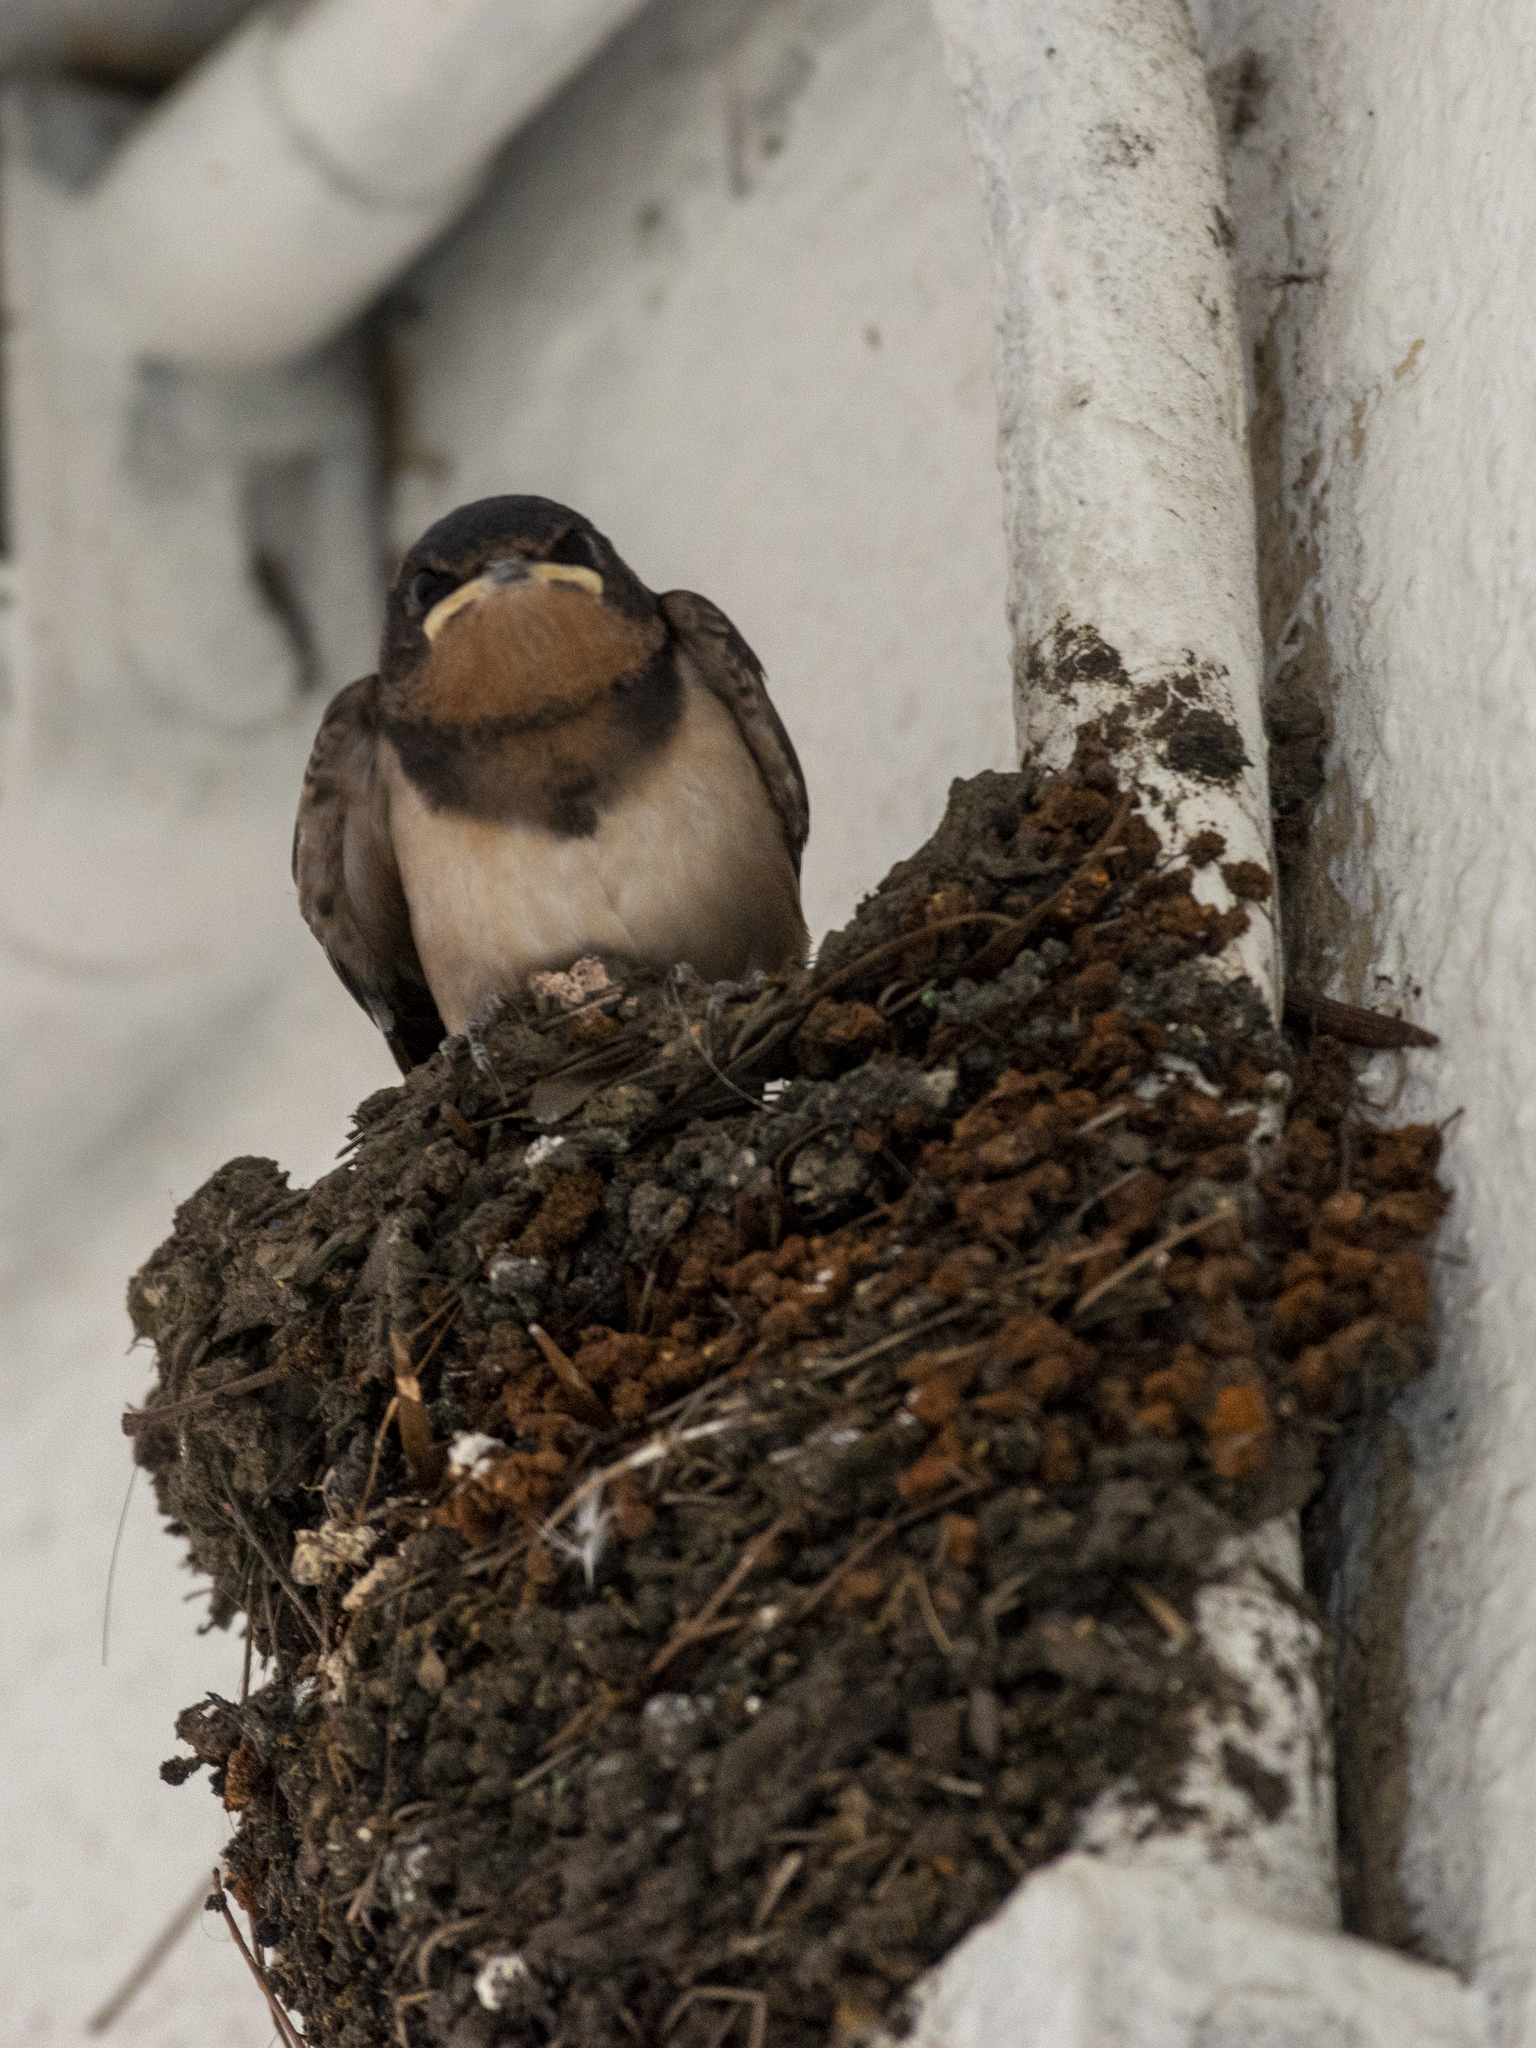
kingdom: Animalia
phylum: Chordata
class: Aves
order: Passeriformes
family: Hirundinidae
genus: Hirundo
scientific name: Hirundo rustica
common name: Barn swallow
